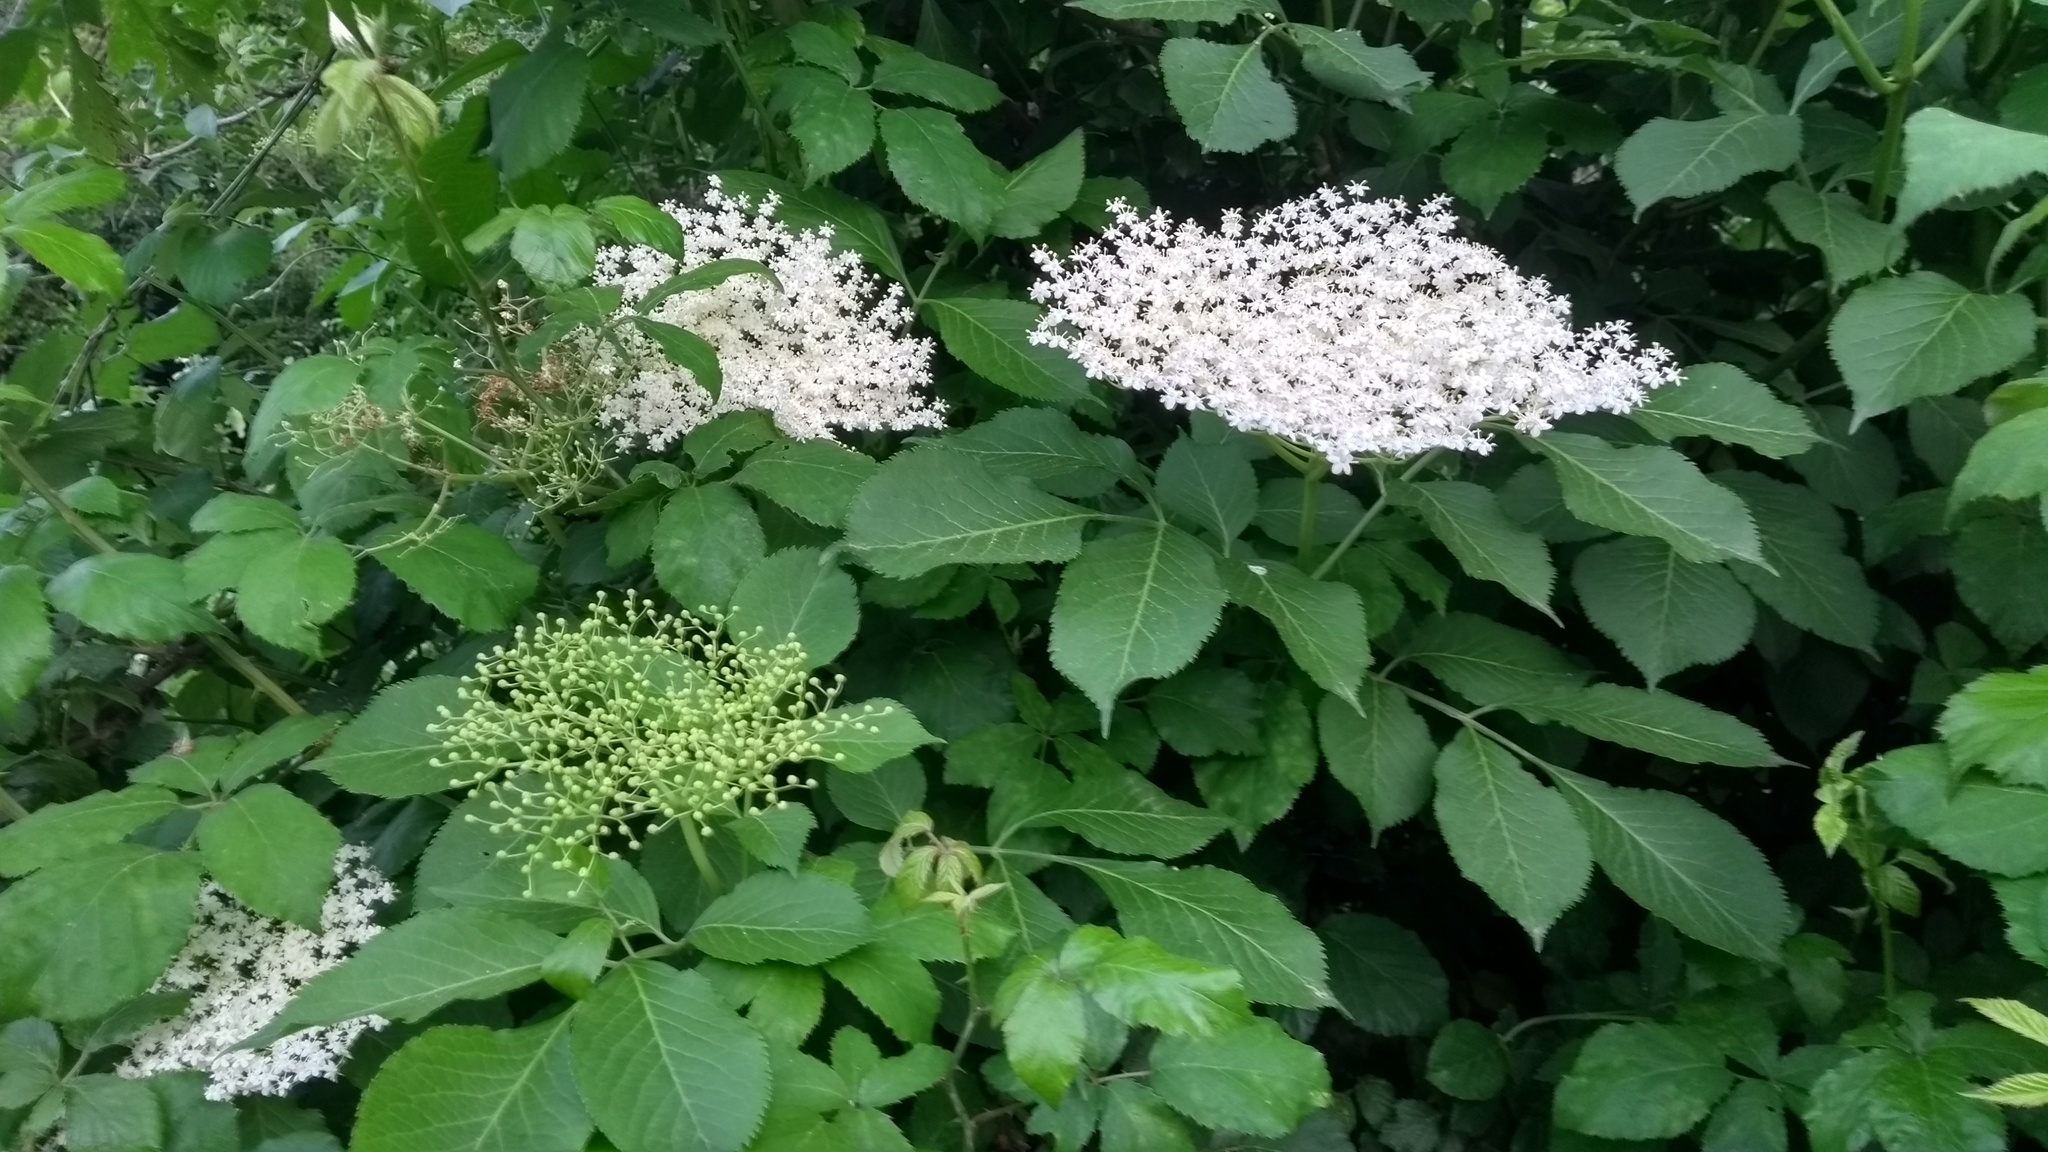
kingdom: Plantae
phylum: Tracheophyta
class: Magnoliopsida
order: Dipsacales
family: Viburnaceae
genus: Sambucus
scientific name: Sambucus nigra
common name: Elder
